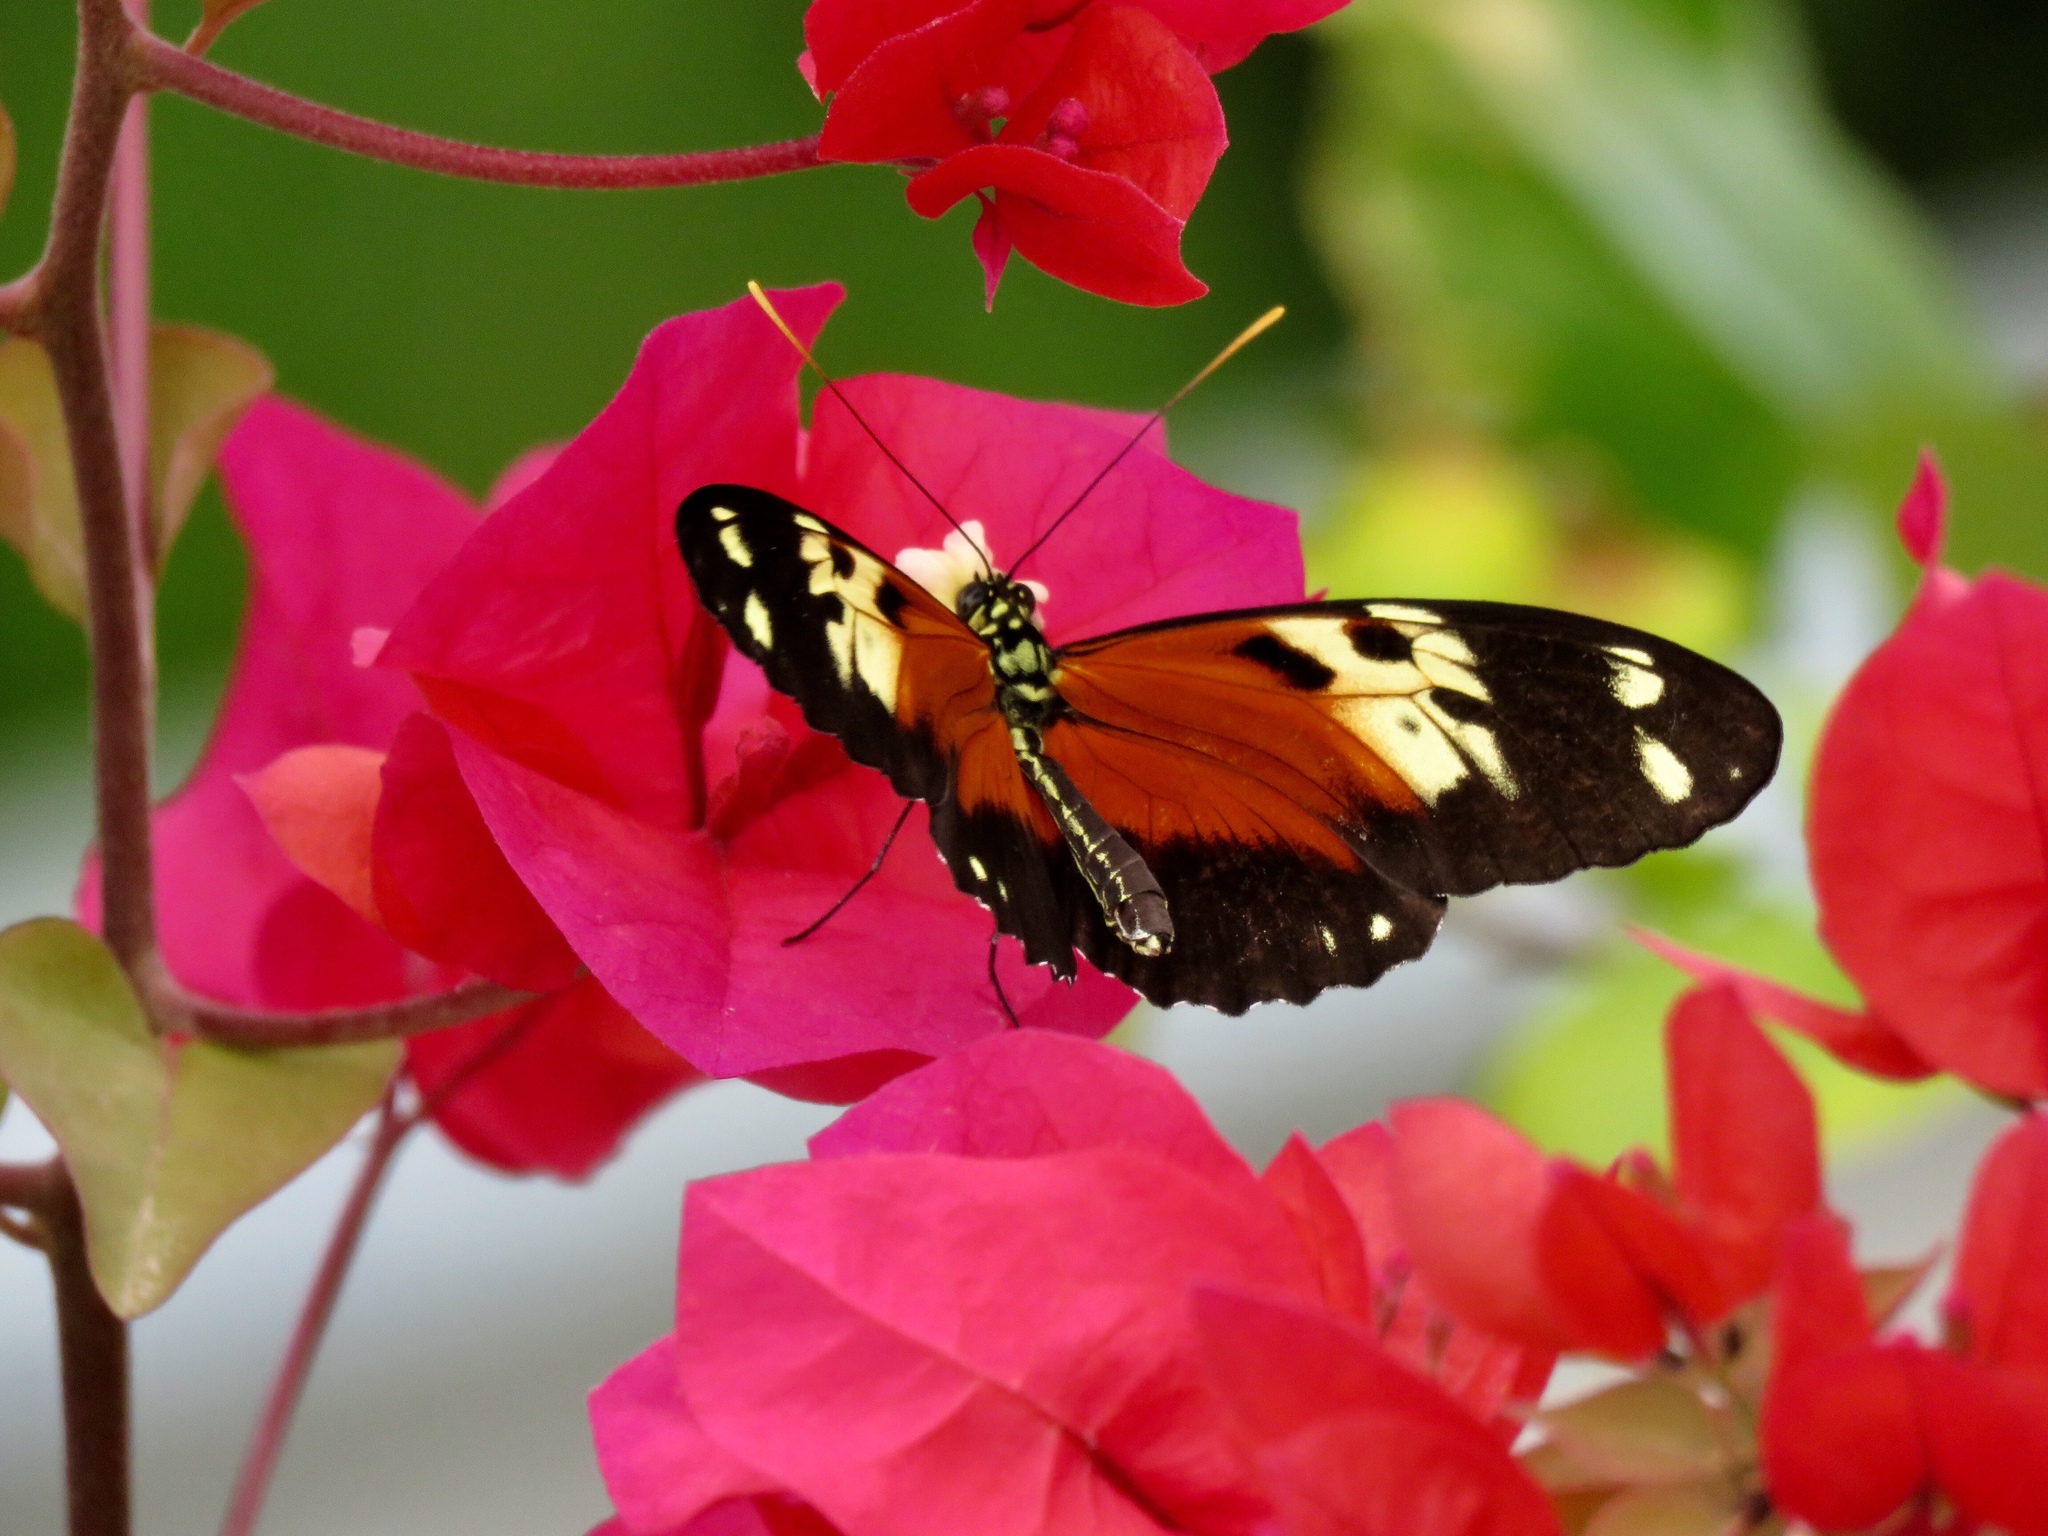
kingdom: Animalia
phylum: Arthropoda
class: Insecta
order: Lepidoptera
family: Nymphalidae
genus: Heliconius
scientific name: Heliconius ethilla
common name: Ethilia longwing
